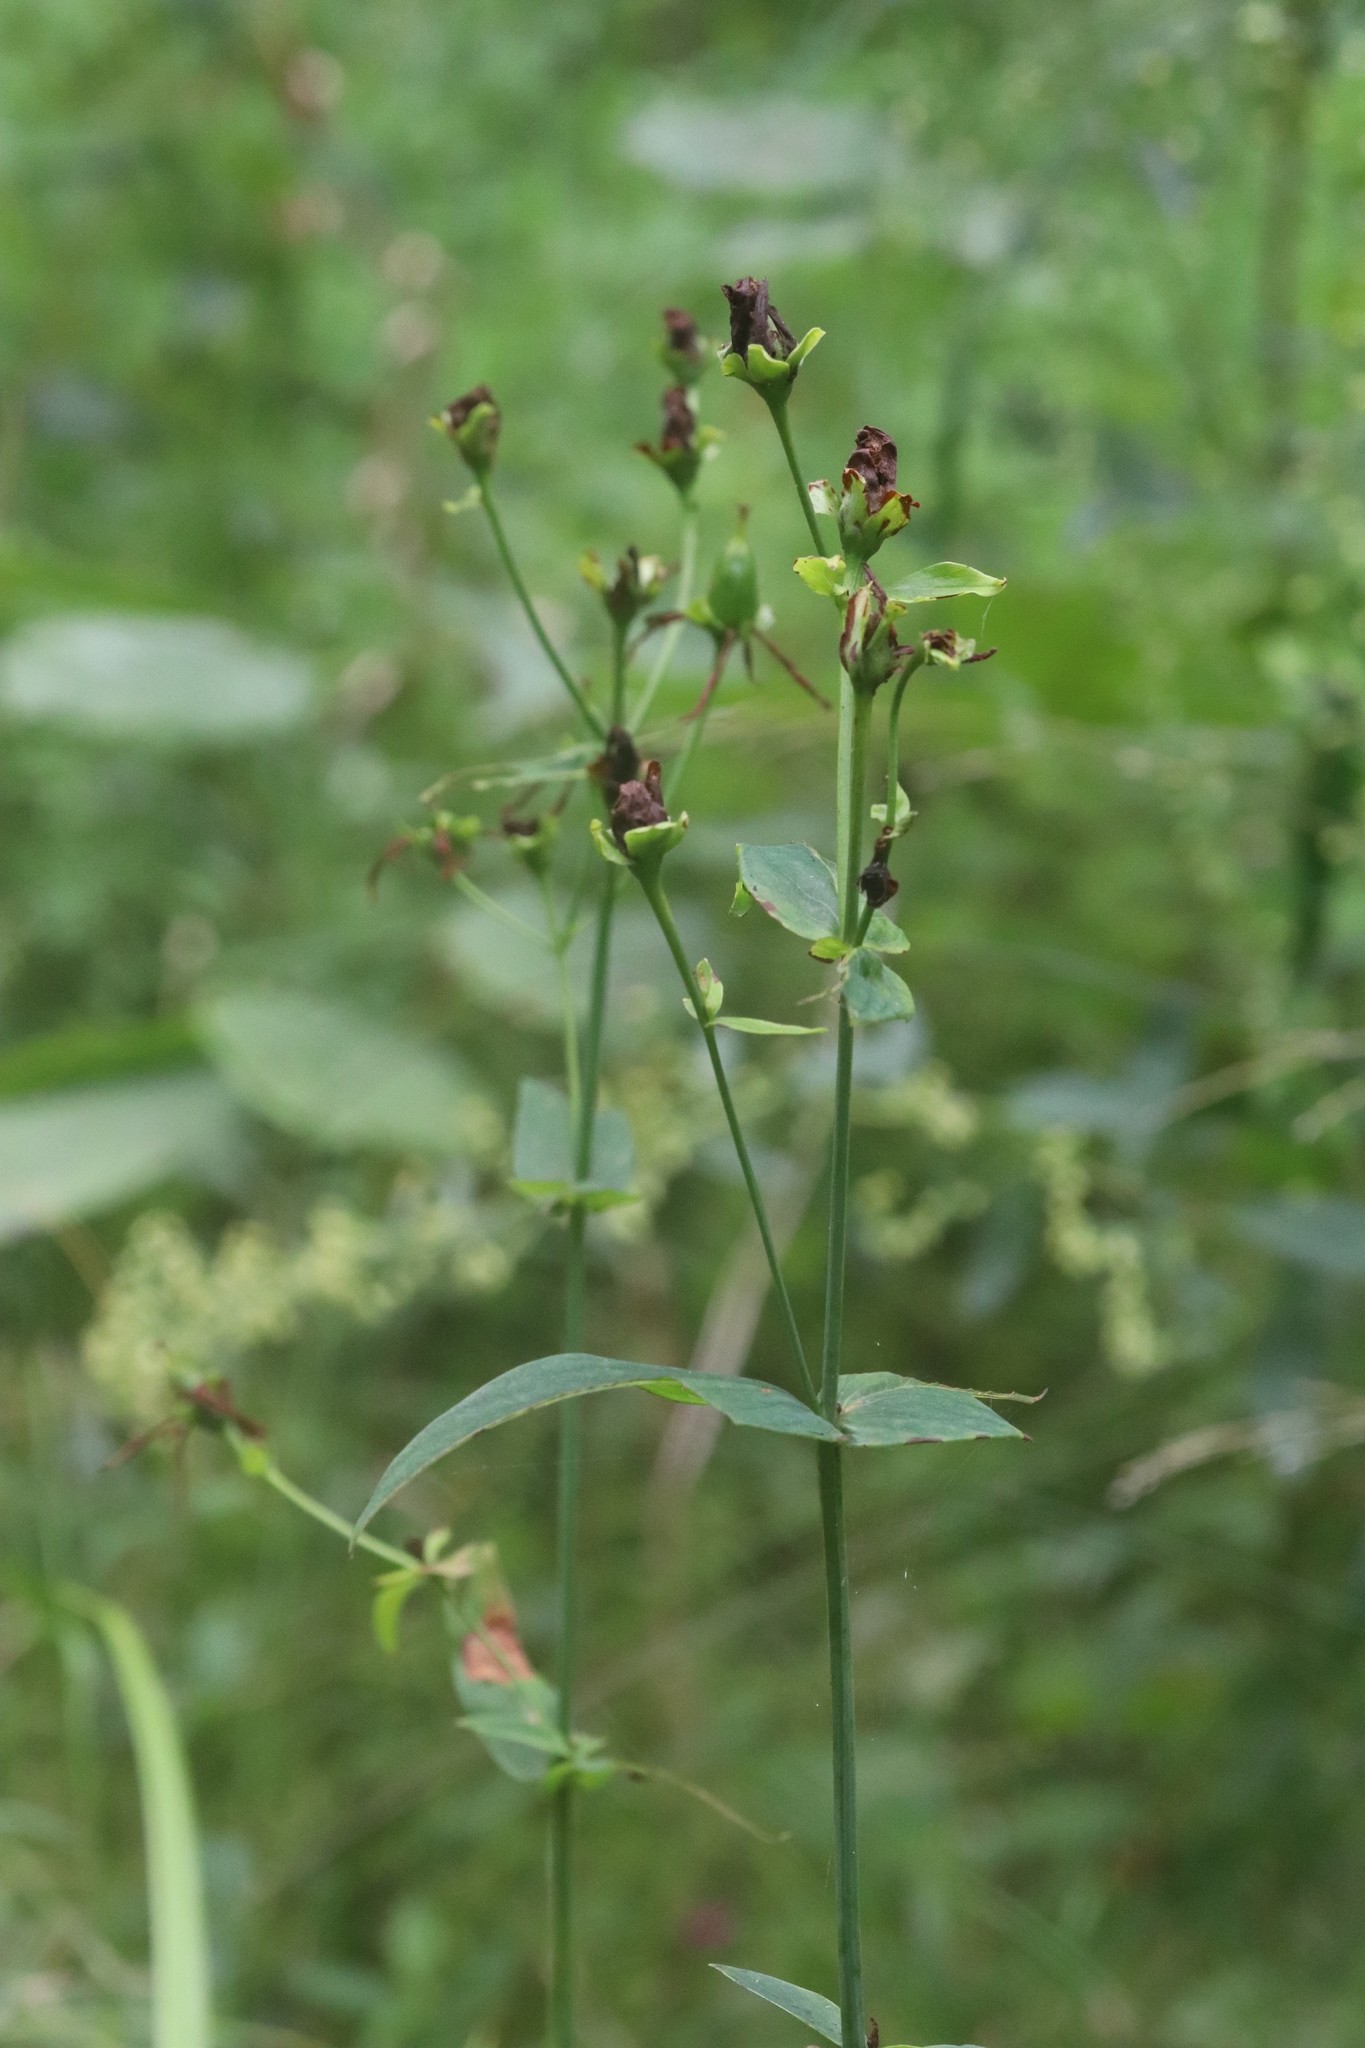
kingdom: Plantae
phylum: Tracheophyta
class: Magnoliopsida
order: Malpighiales
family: Hypericaceae
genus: Hypericum
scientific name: Hypericum ascyron
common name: Giant st. john's-wort
